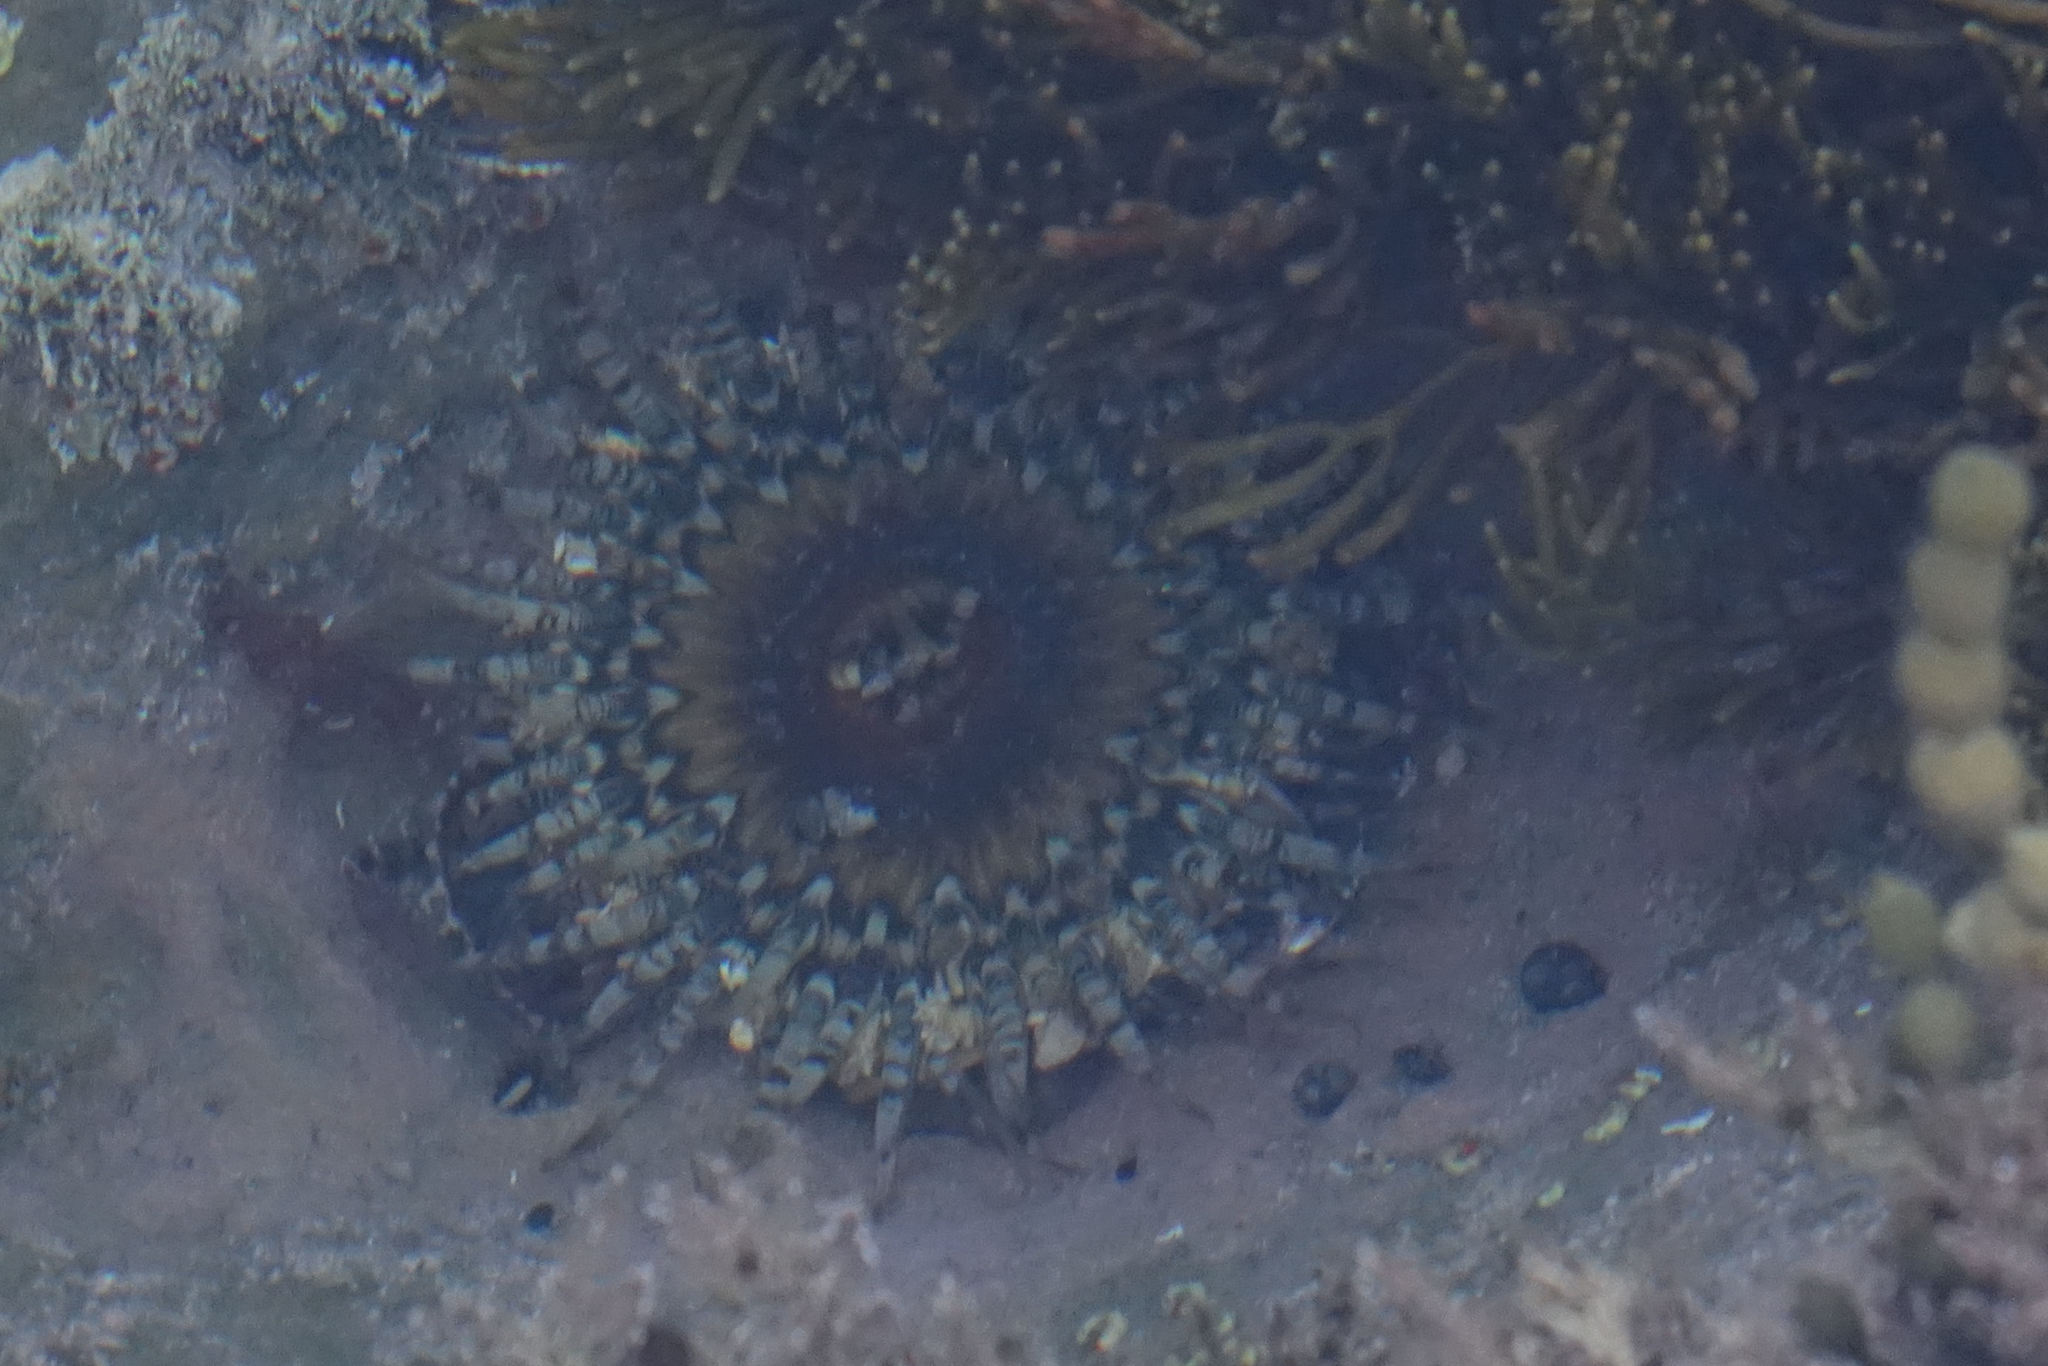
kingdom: Animalia
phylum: Cnidaria
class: Anthozoa
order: Actiniaria
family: Actiniidae
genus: Oulactis
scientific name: Oulactis muscosa
